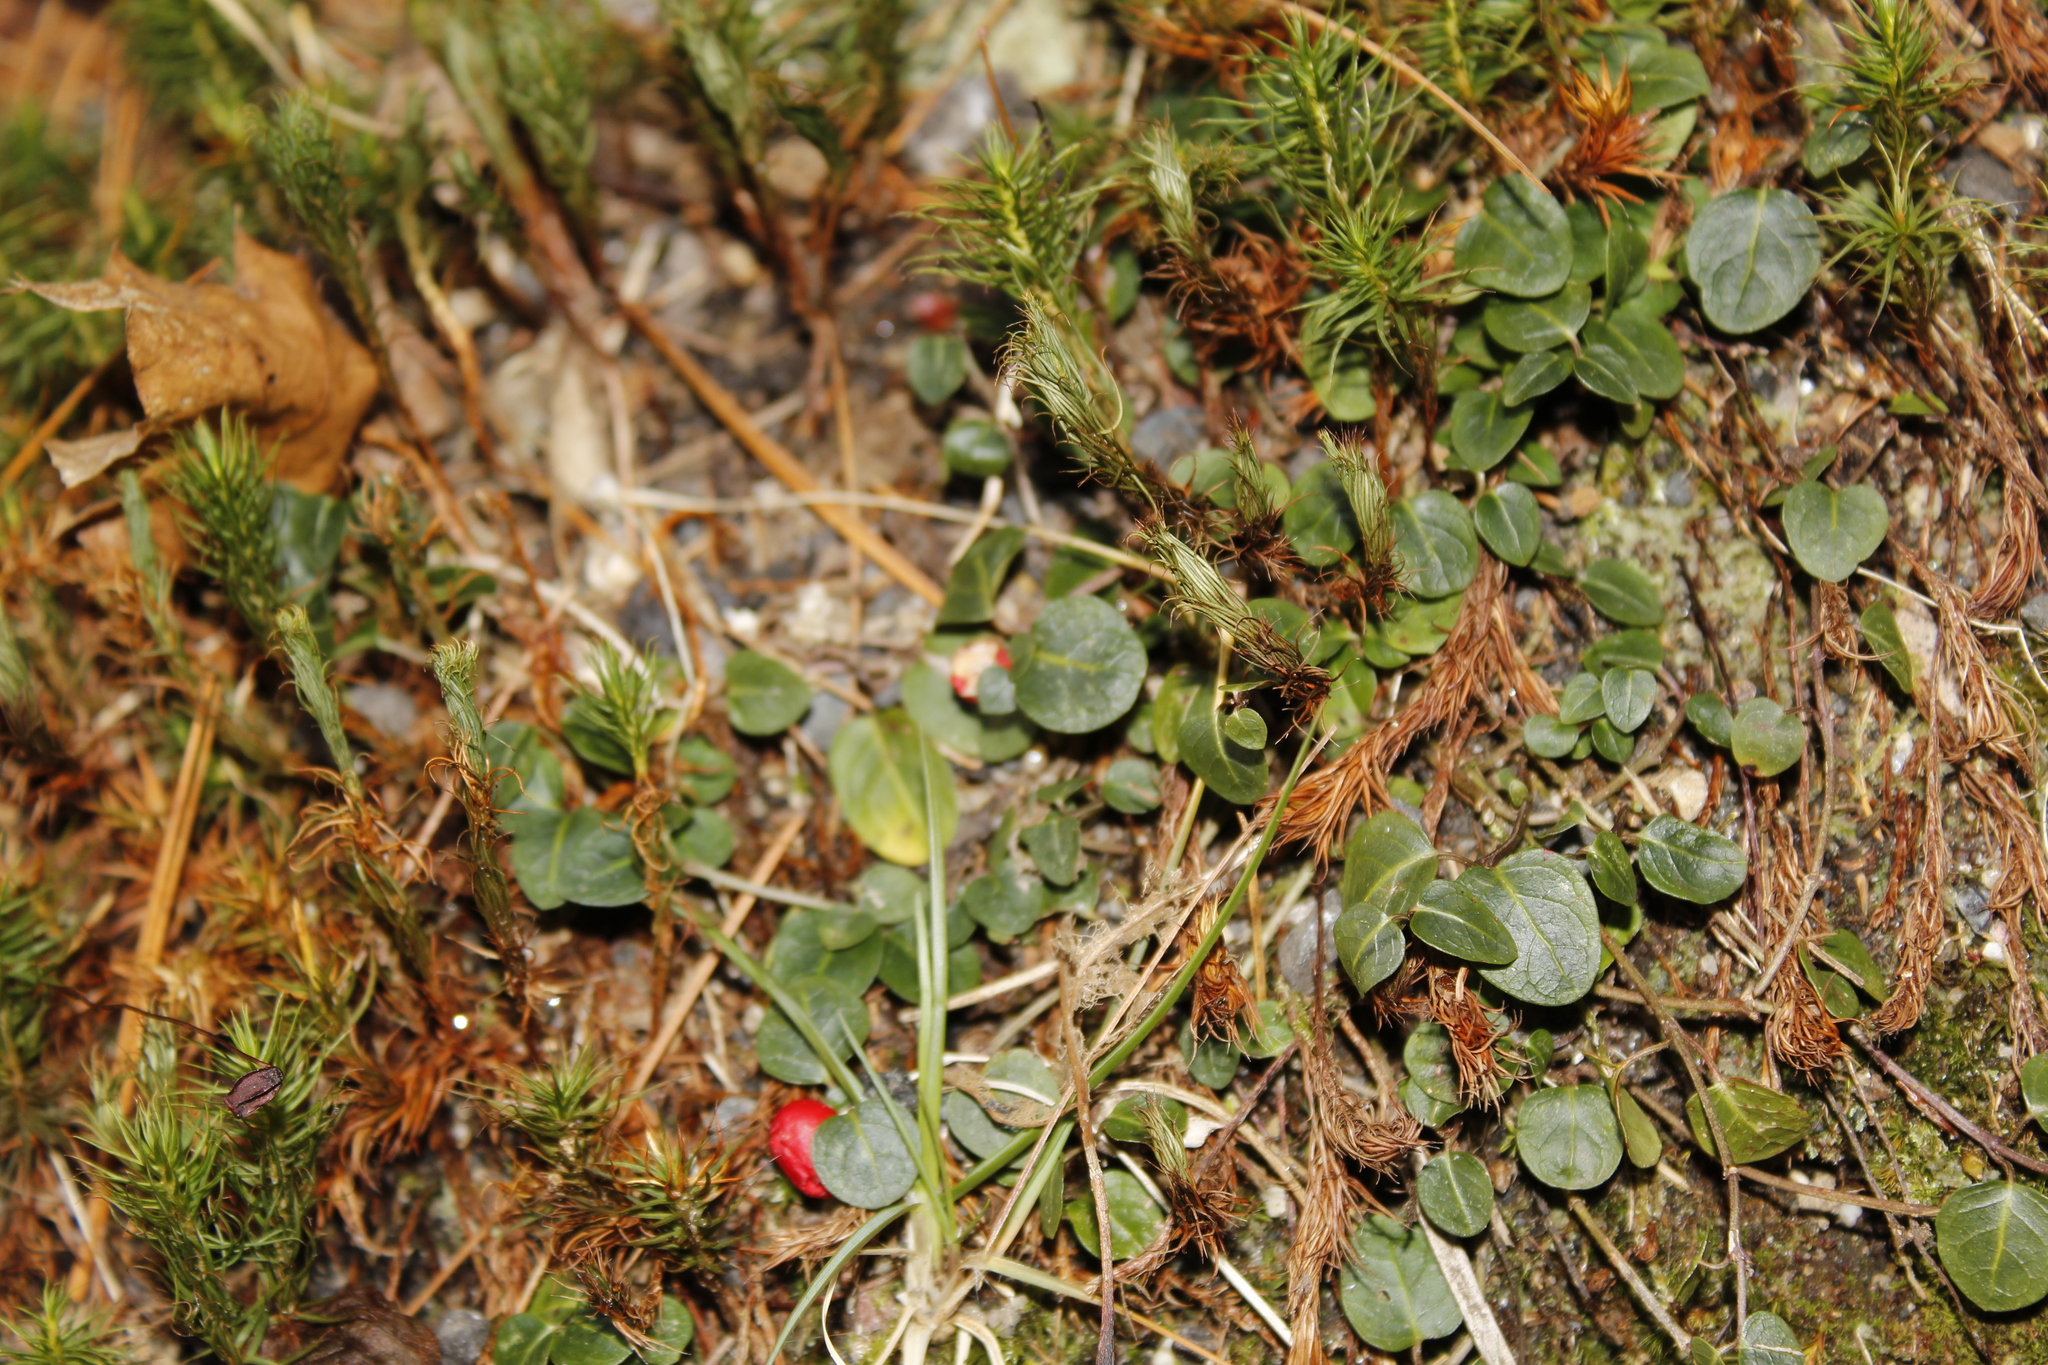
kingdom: Plantae
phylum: Tracheophyta
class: Magnoliopsida
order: Gentianales
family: Rubiaceae
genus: Mitchella
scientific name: Mitchella repens
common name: Partridge-berry
